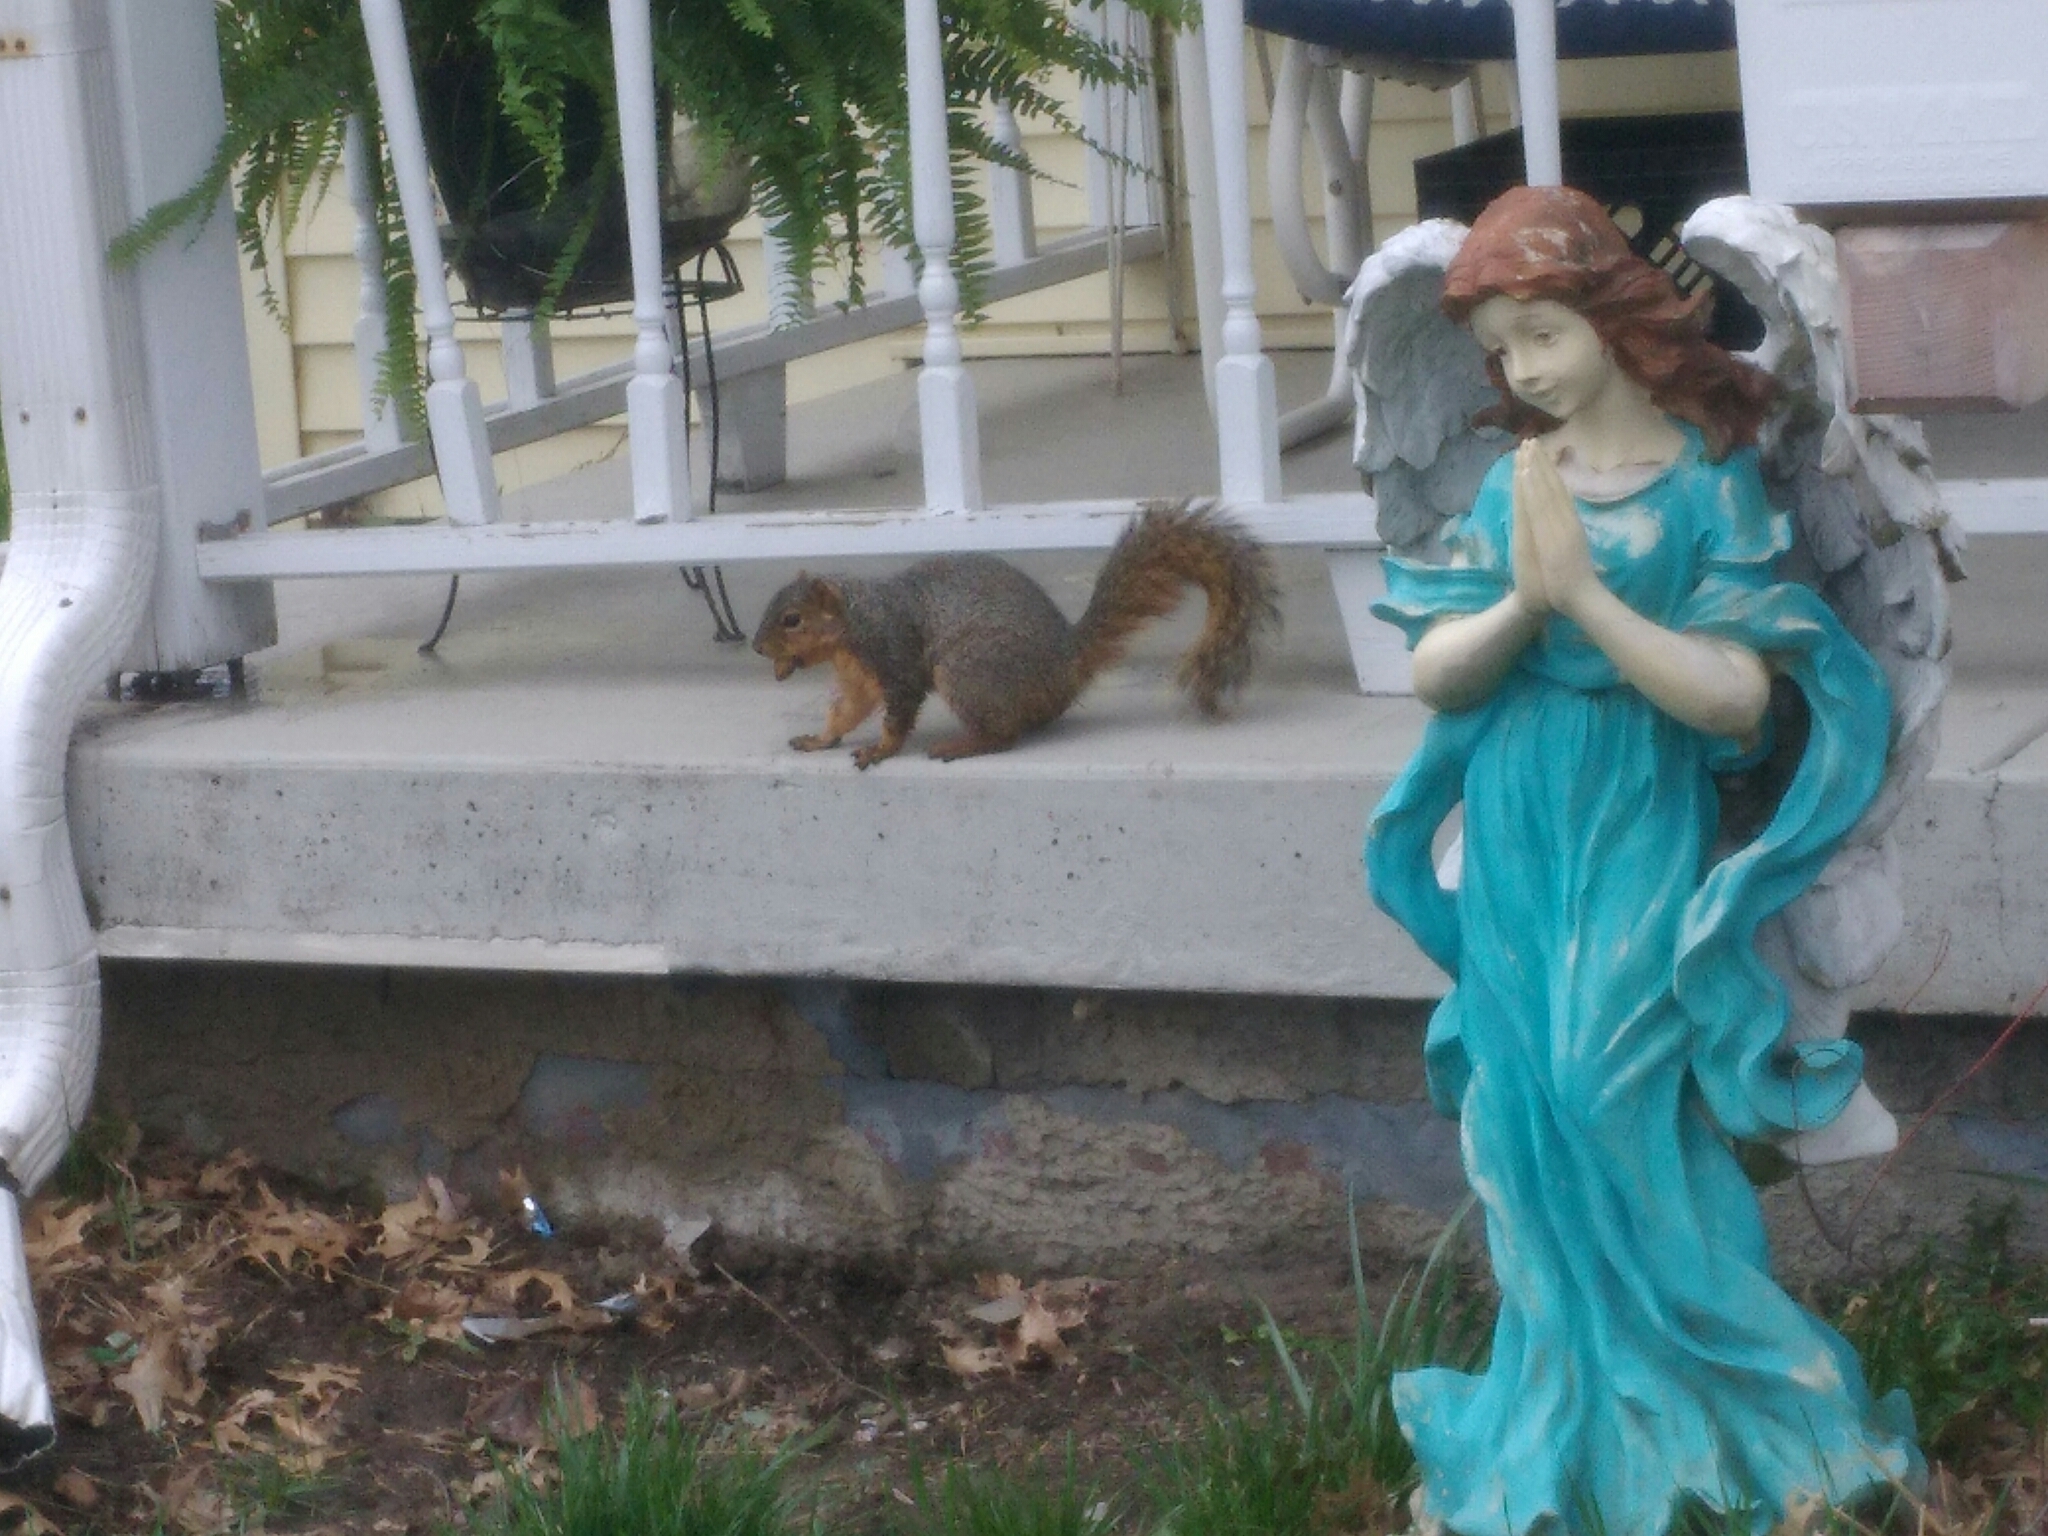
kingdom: Animalia
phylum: Chordata
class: Mammalia
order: Rodentia
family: Sciuridae
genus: Sciurus
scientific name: Sciurus niger
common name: Fox squirrel
